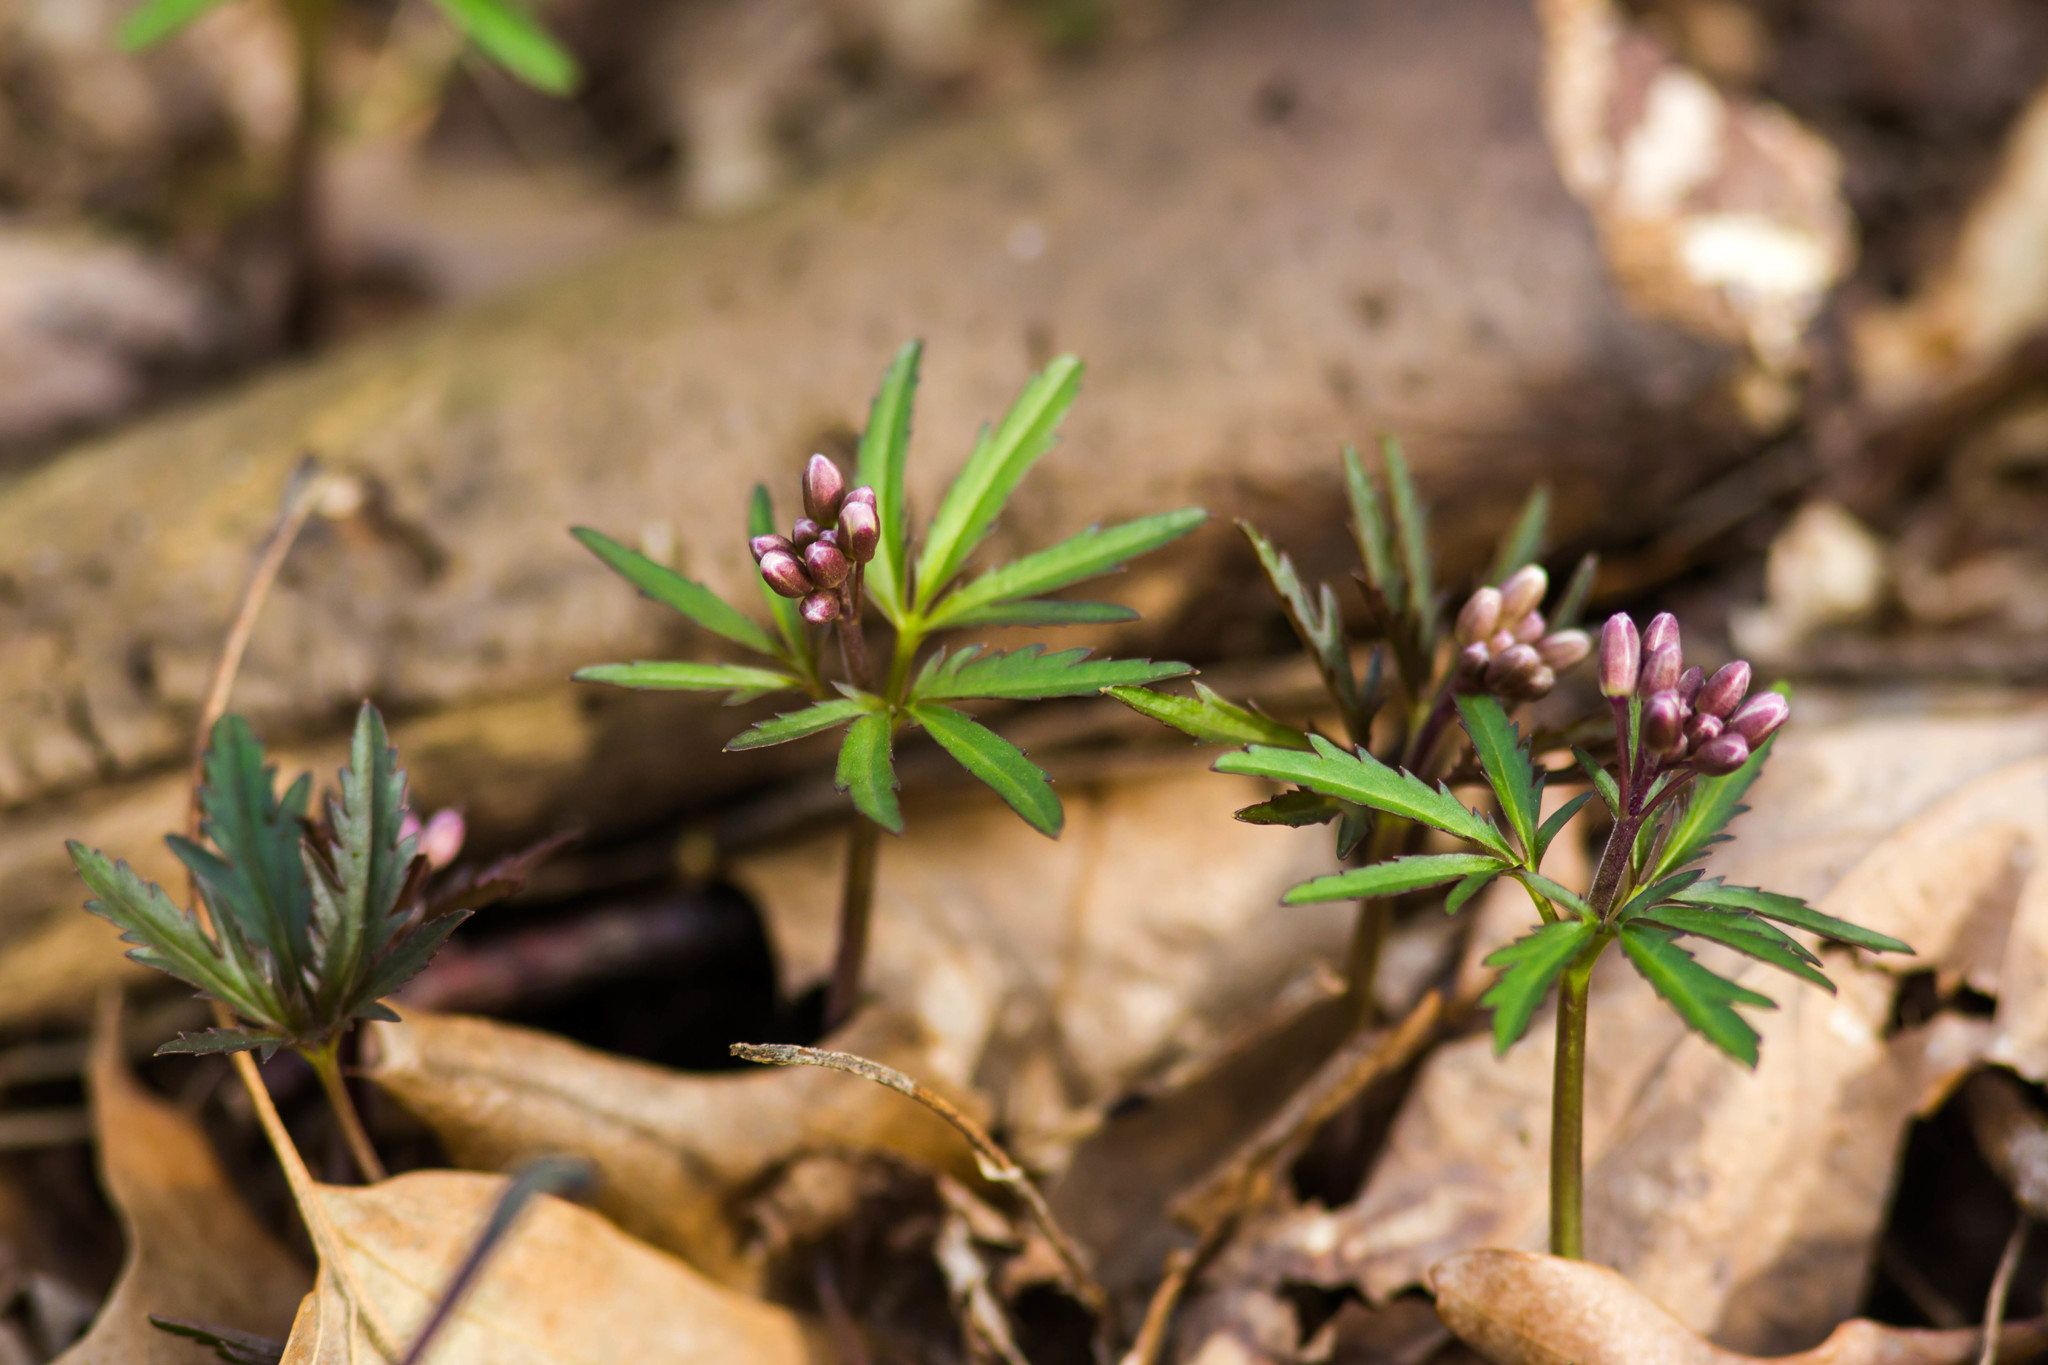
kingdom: Plantae
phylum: Tracheophyta
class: Magnoliopsida
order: Brassicales
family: Brassicaceae
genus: Cardamine
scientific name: Cardamine concatenata
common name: Cut-leaf toothcup
